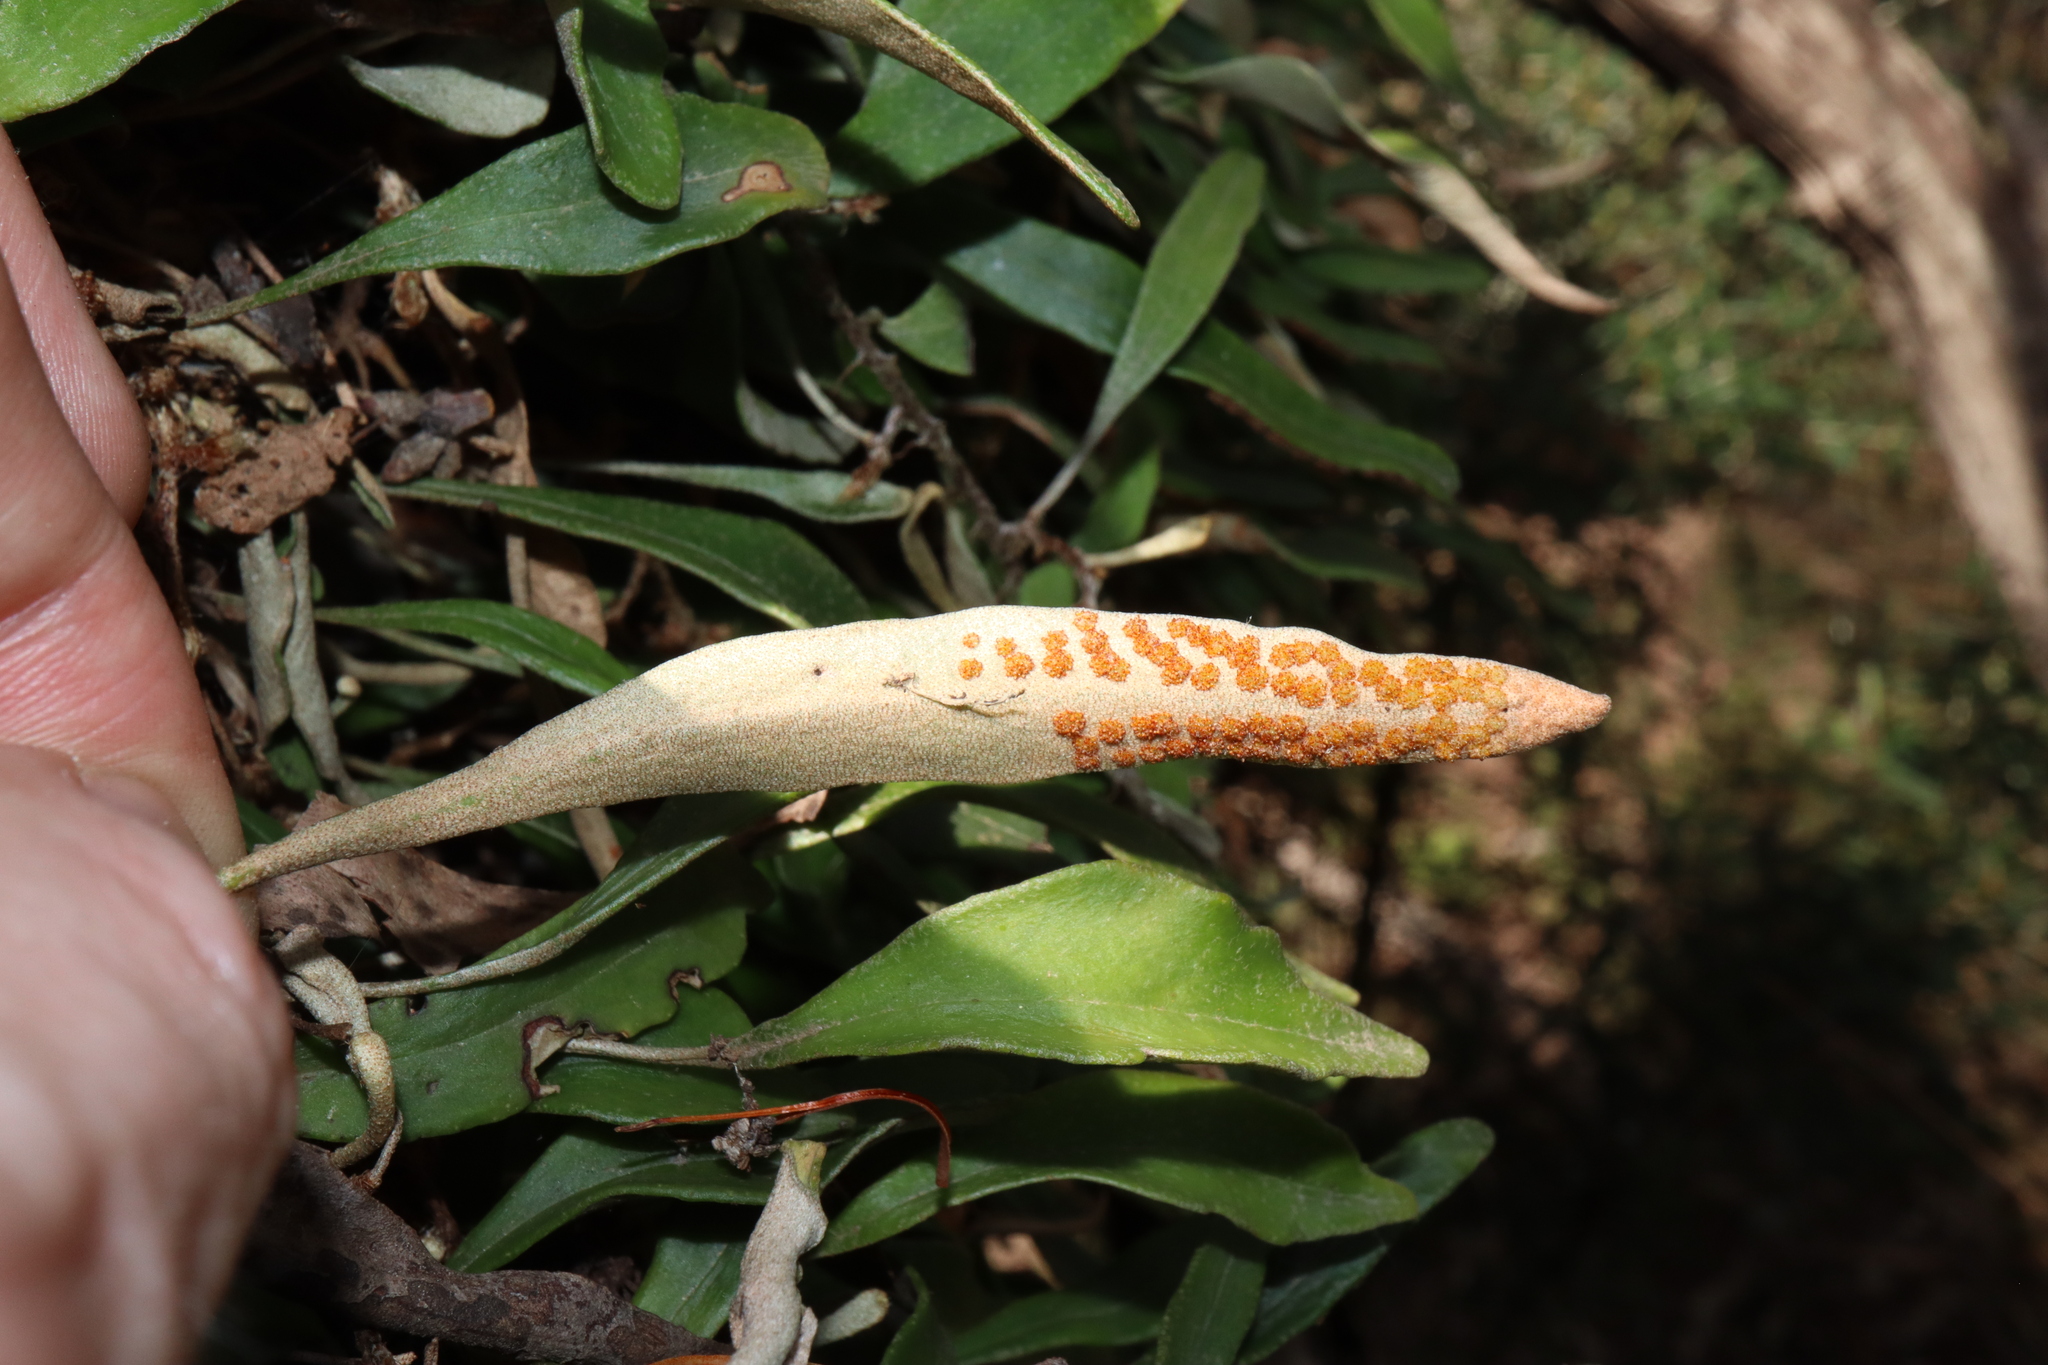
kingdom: Plantae
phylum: Tracheophyta
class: Polypodiopsida
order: Polypodiales
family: Polypodiaceae
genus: Pyrrosia
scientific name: Pyrrosia rupestris
